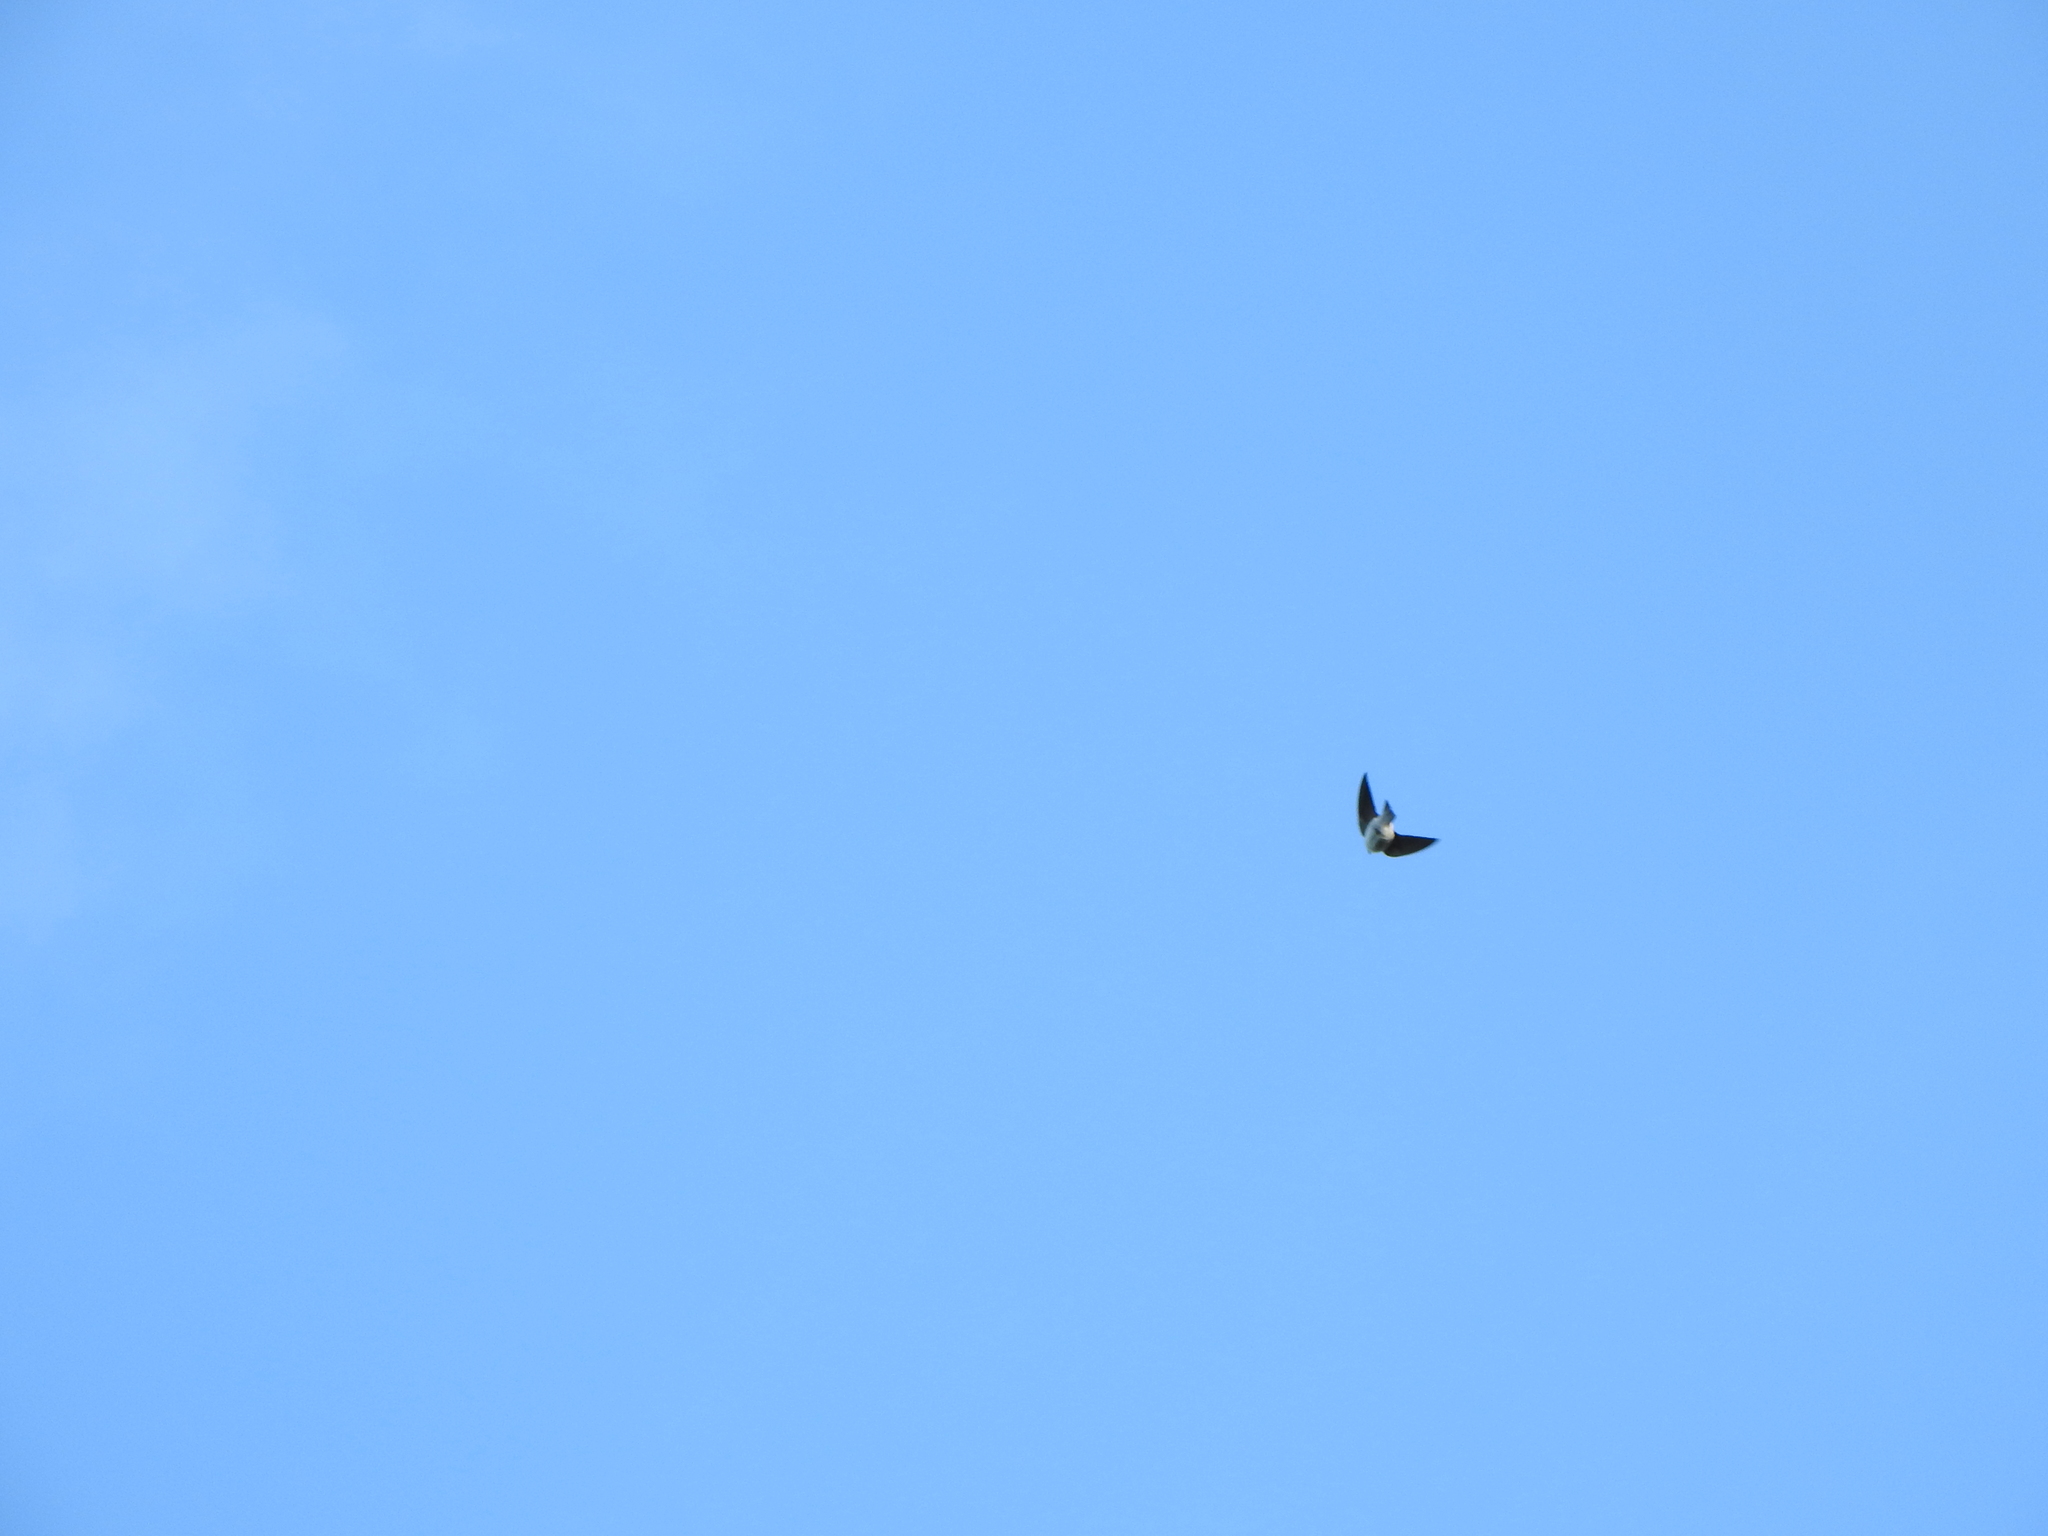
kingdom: Animalia
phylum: Chordata
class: Aves
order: Passeriformes
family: Hirundinidae
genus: Progne
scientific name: Progne chalybea
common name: Grey-breasted martin
